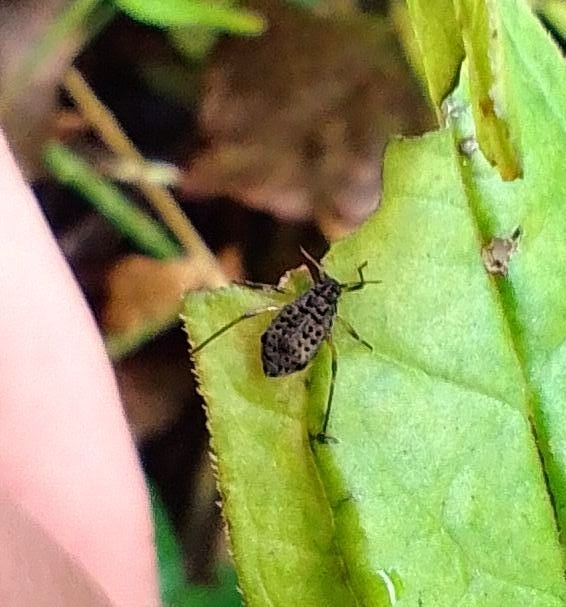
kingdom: Animalia
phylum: Arthropoda
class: Insecta
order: Hemiptera
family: Aphididae
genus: Tuberolachnus
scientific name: Tuberolachnus salignus
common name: Giant willow aphid
